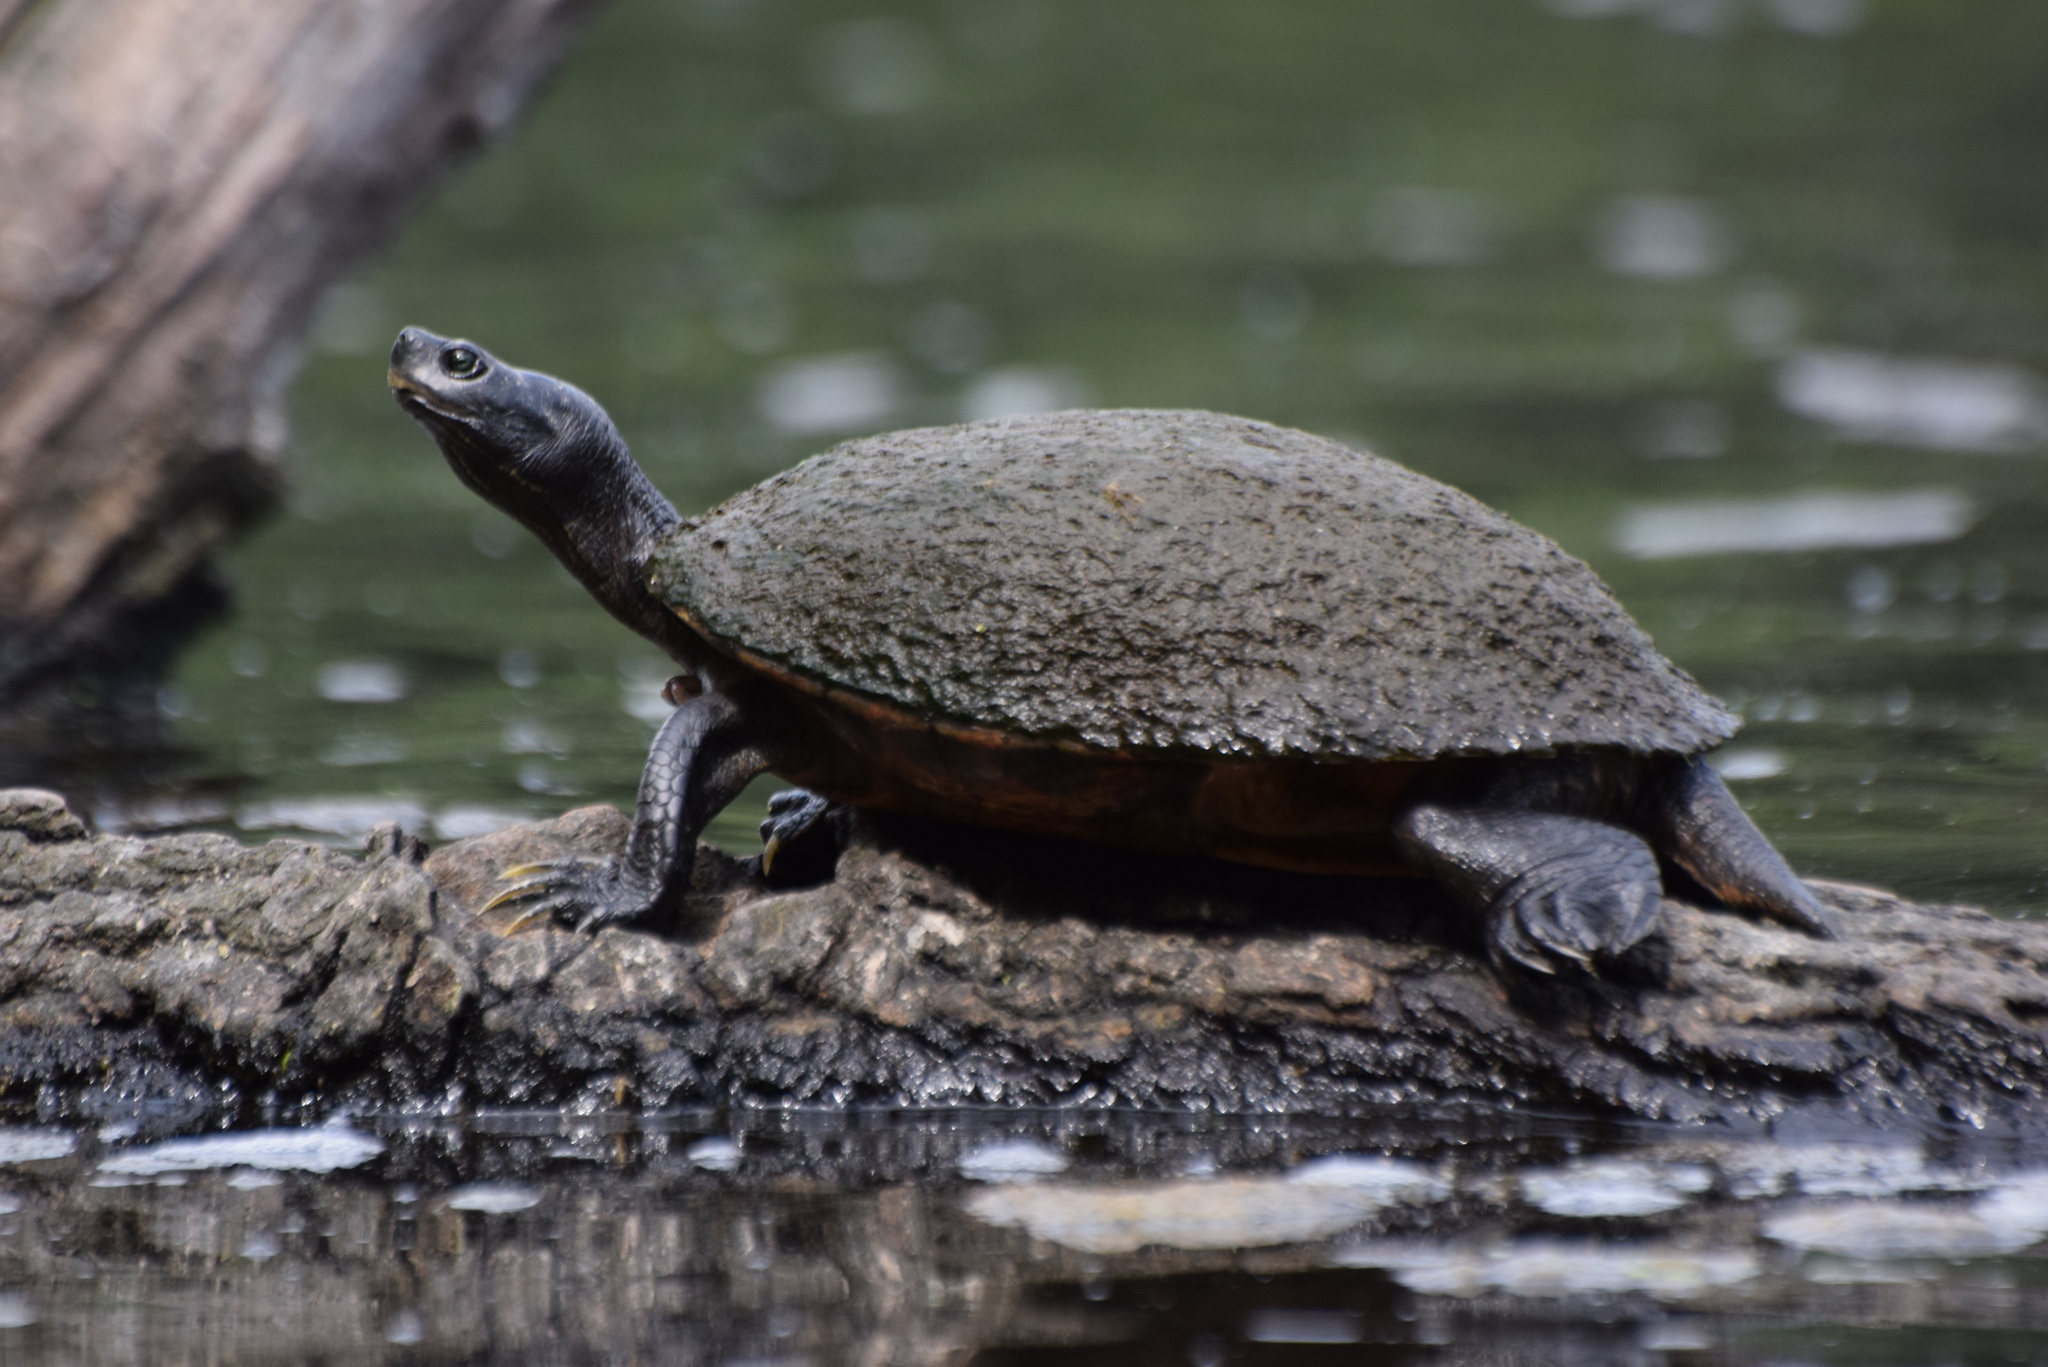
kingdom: Animalia
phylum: Chordata
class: Testudines
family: Emydidae
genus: Pseudemys
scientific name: Pseudemys rubriventris
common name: American red-bellied turtle
